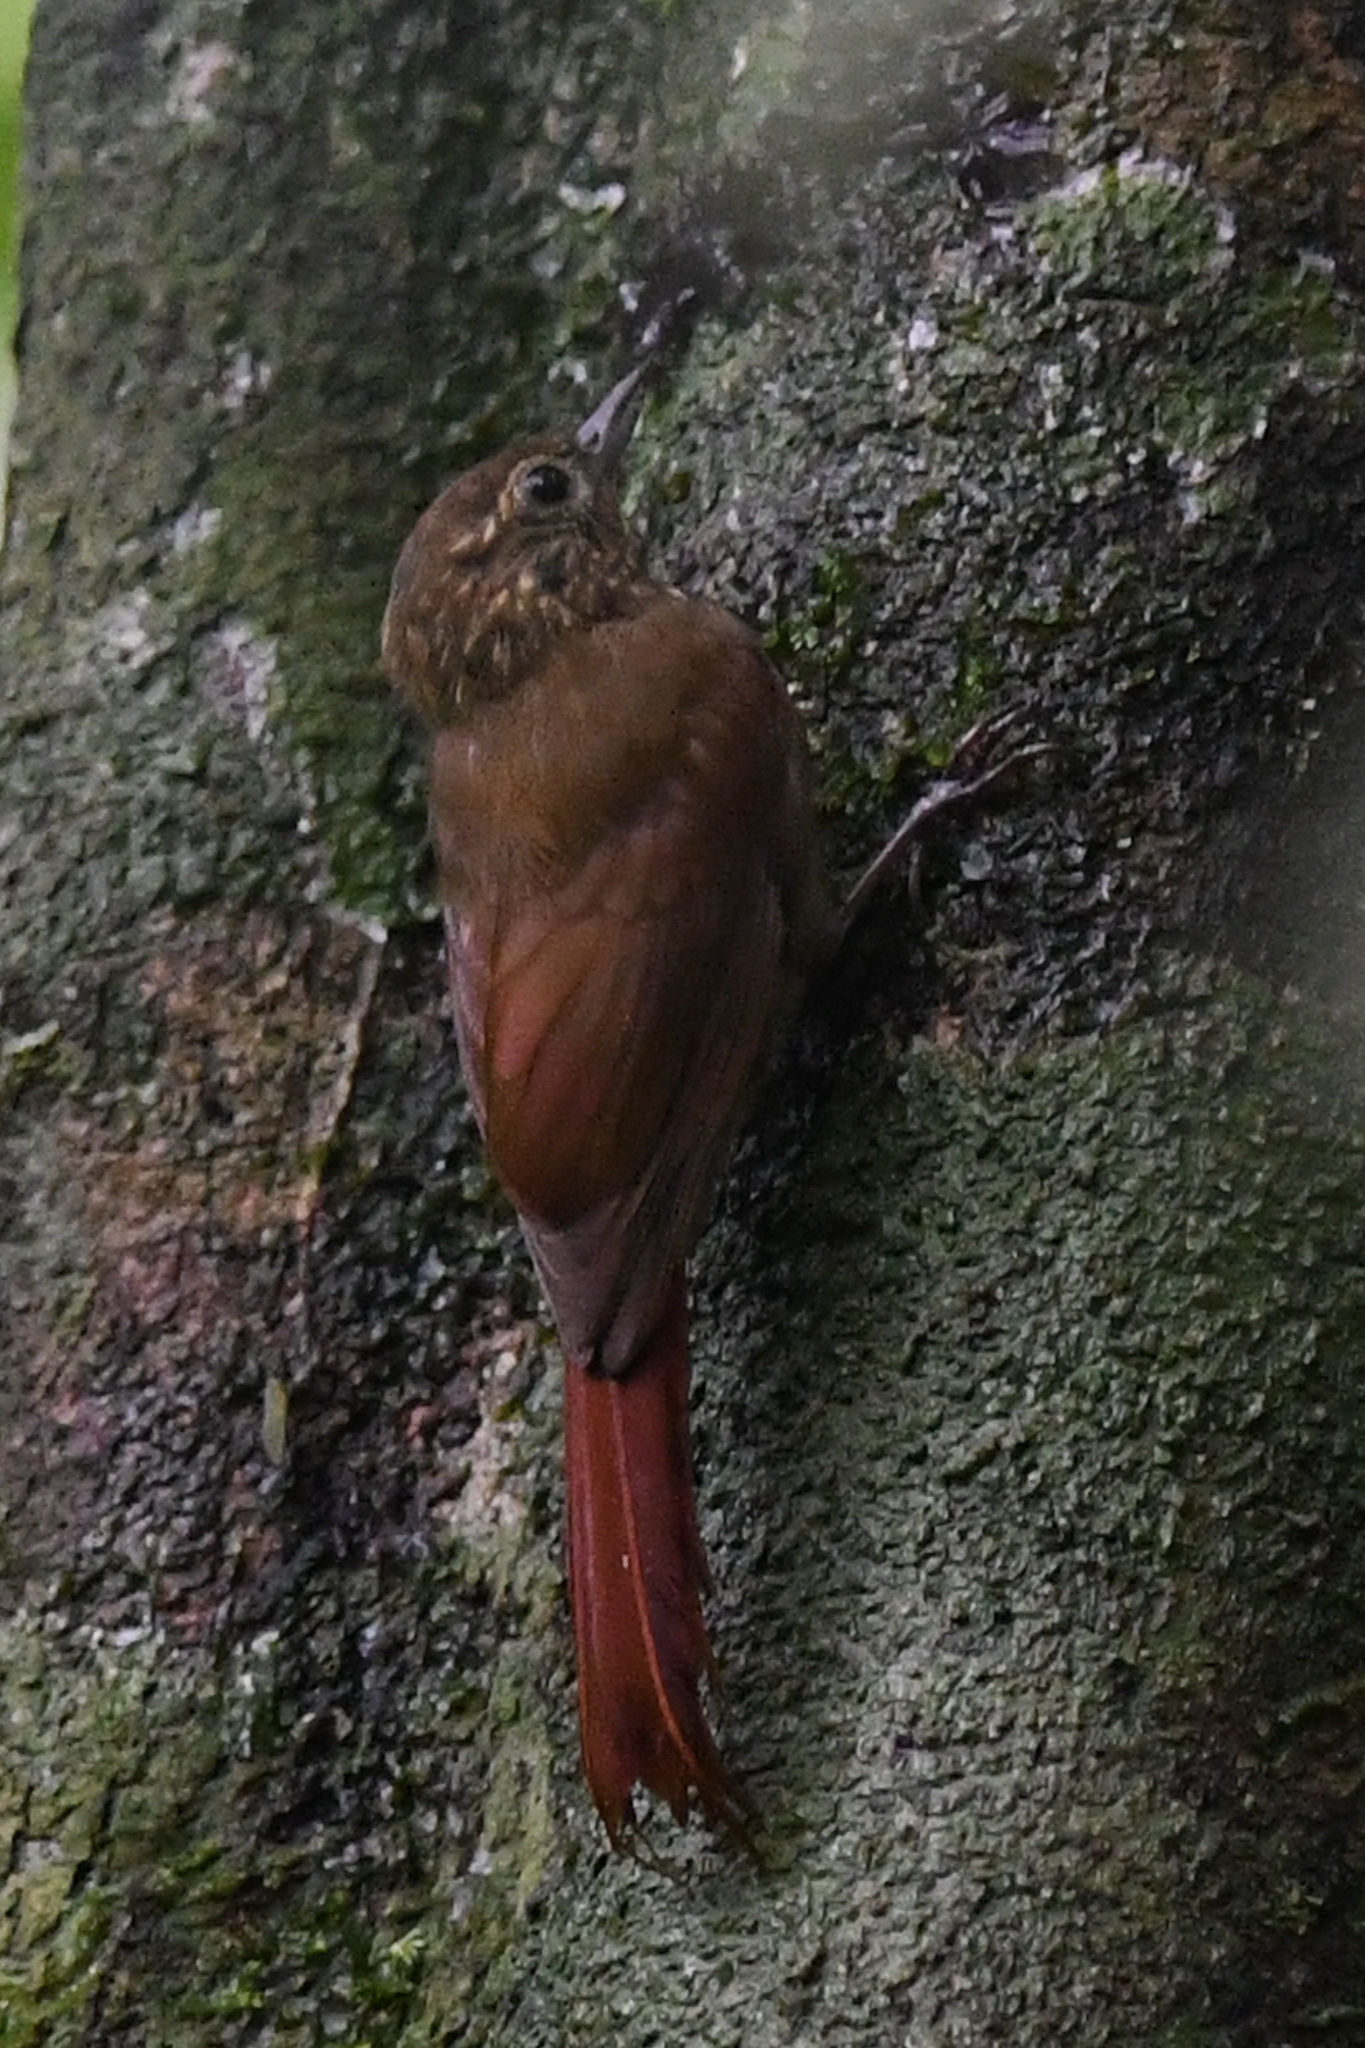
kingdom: Animalia
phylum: Chordata
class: Aves
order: Passeriformes
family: Furnariidae
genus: Glyphorynchus
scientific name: Glyphorynchus spirurus
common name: Wedge-billed woodcreeper
